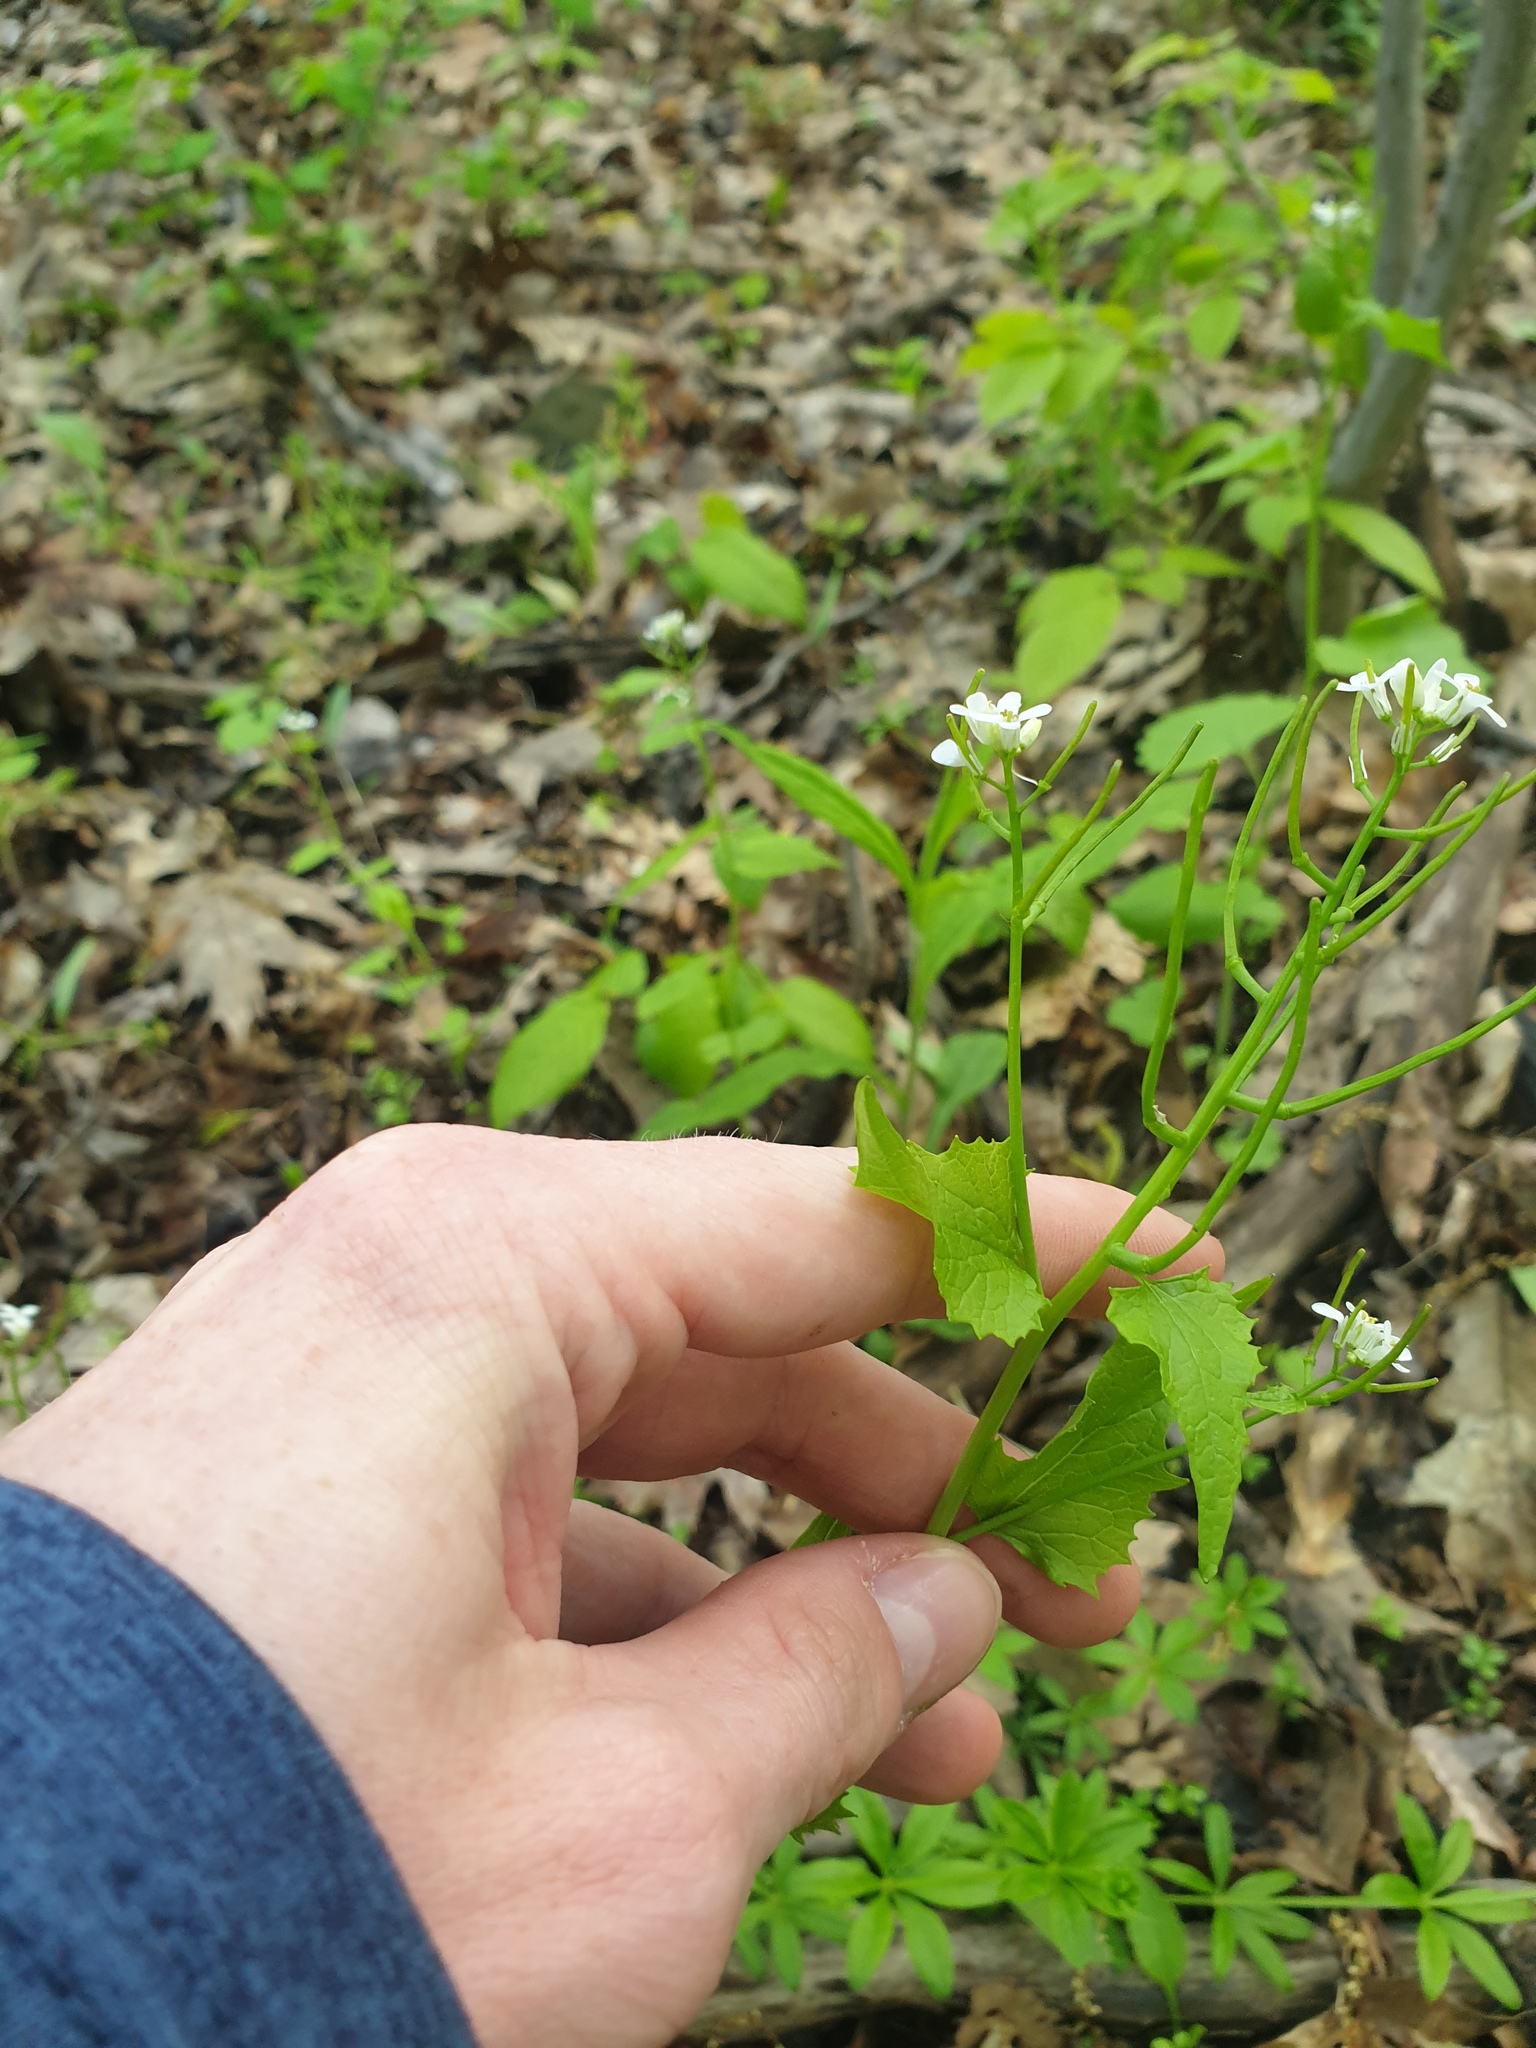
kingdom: Plantae
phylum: Tracheophyta
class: Magnoliopsida
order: Brassicales
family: Brassicaceae
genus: Alliaria
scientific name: Alliaria petiolata
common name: Garlic mustard
